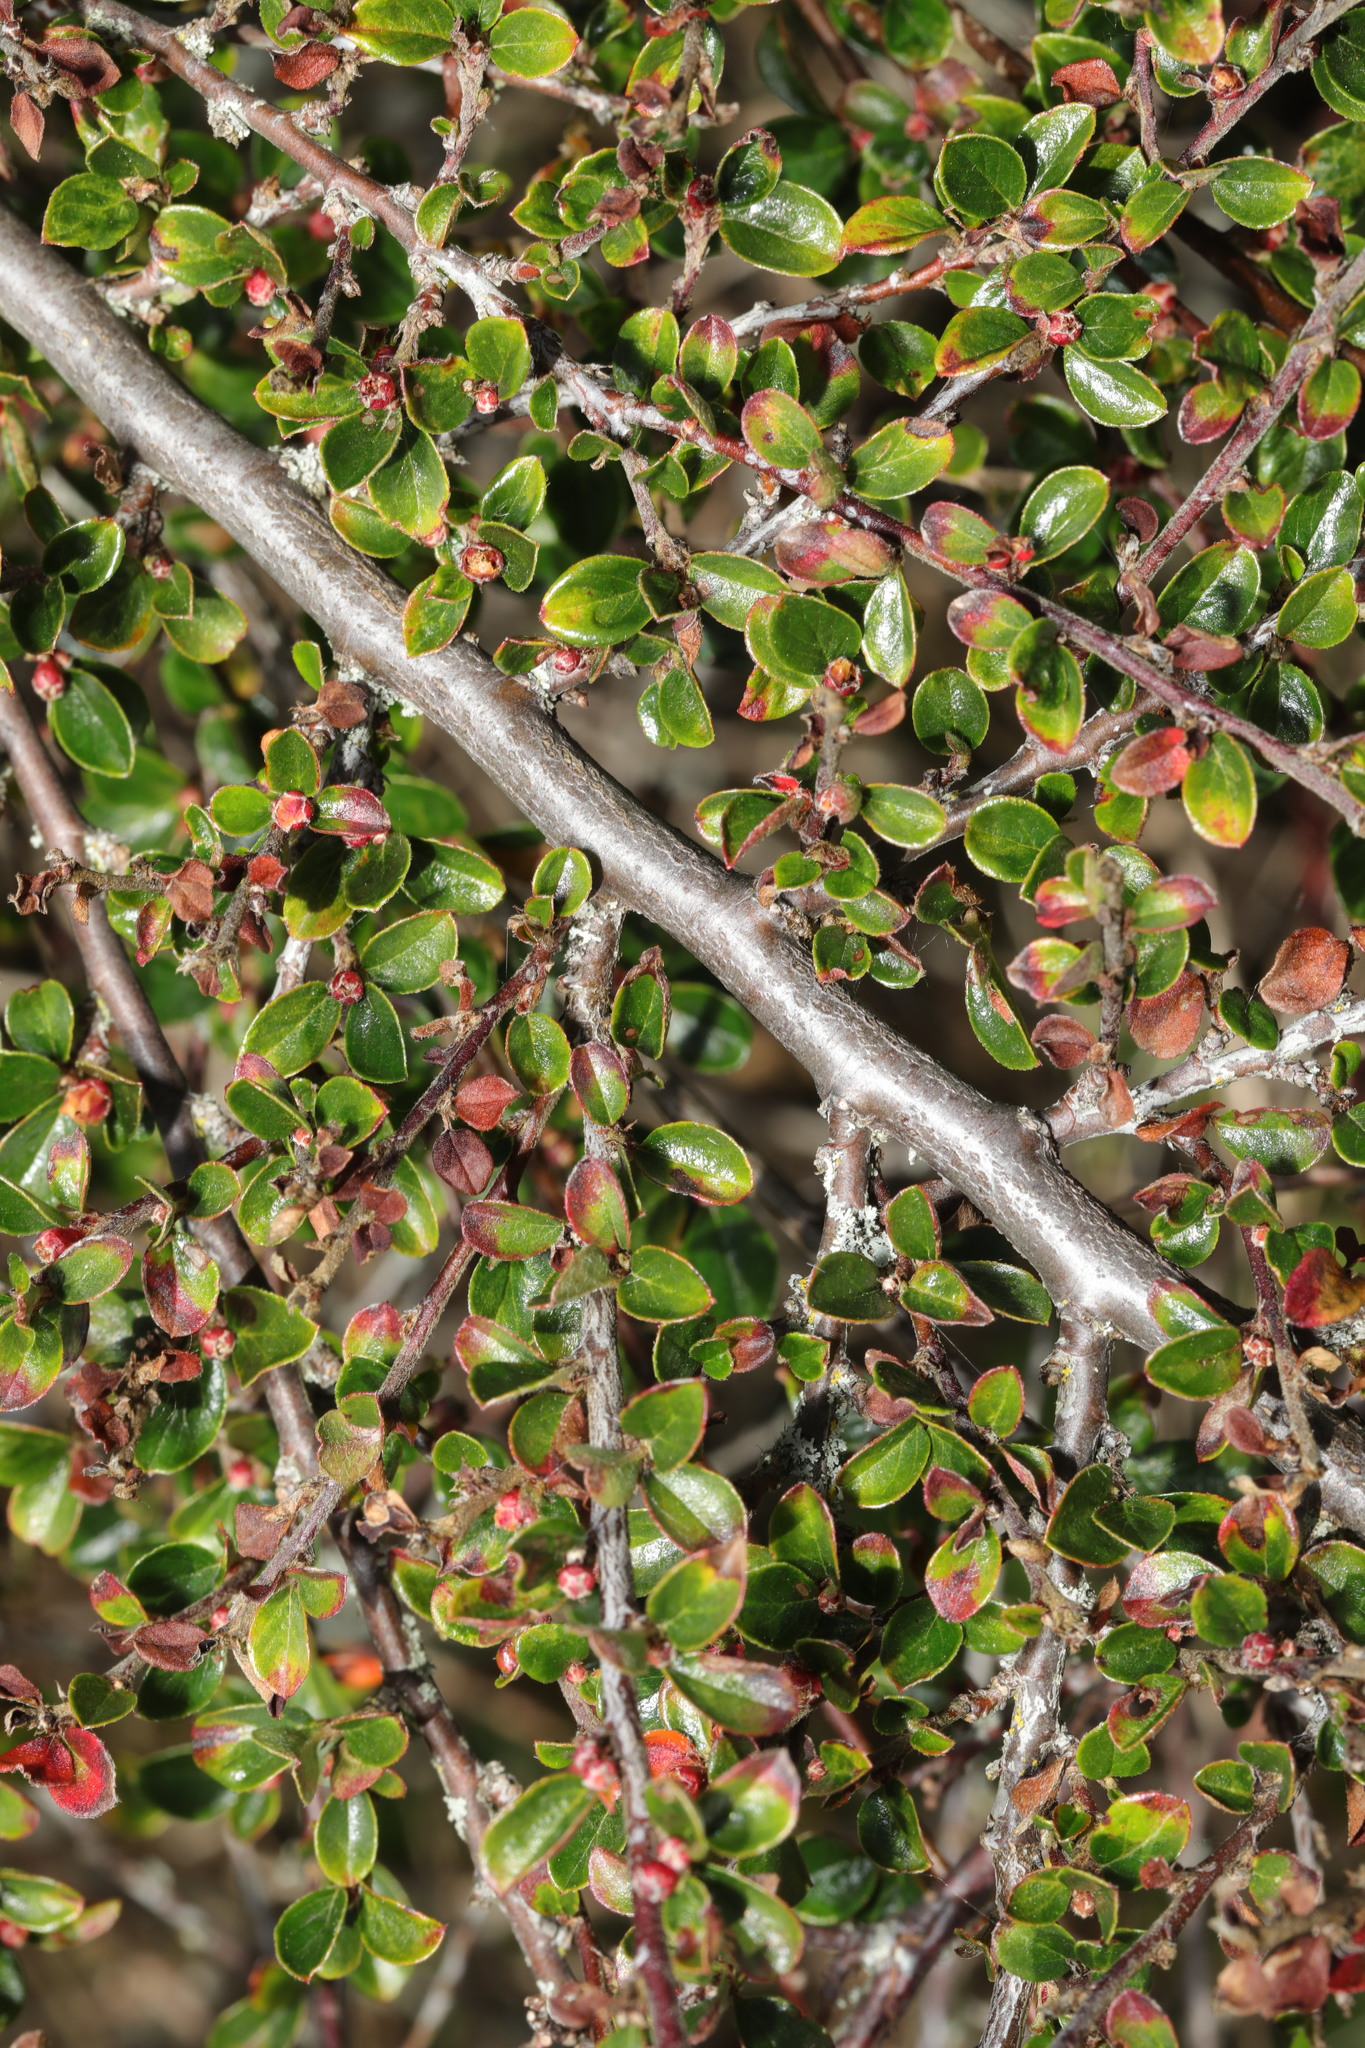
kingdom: Plantae
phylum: Tracheophyta
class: Magnoliopsida
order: Rosales
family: Rosaceae
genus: Cotoneaster
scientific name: Cotoneaster horizontalis
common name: Wall cotoneaster
